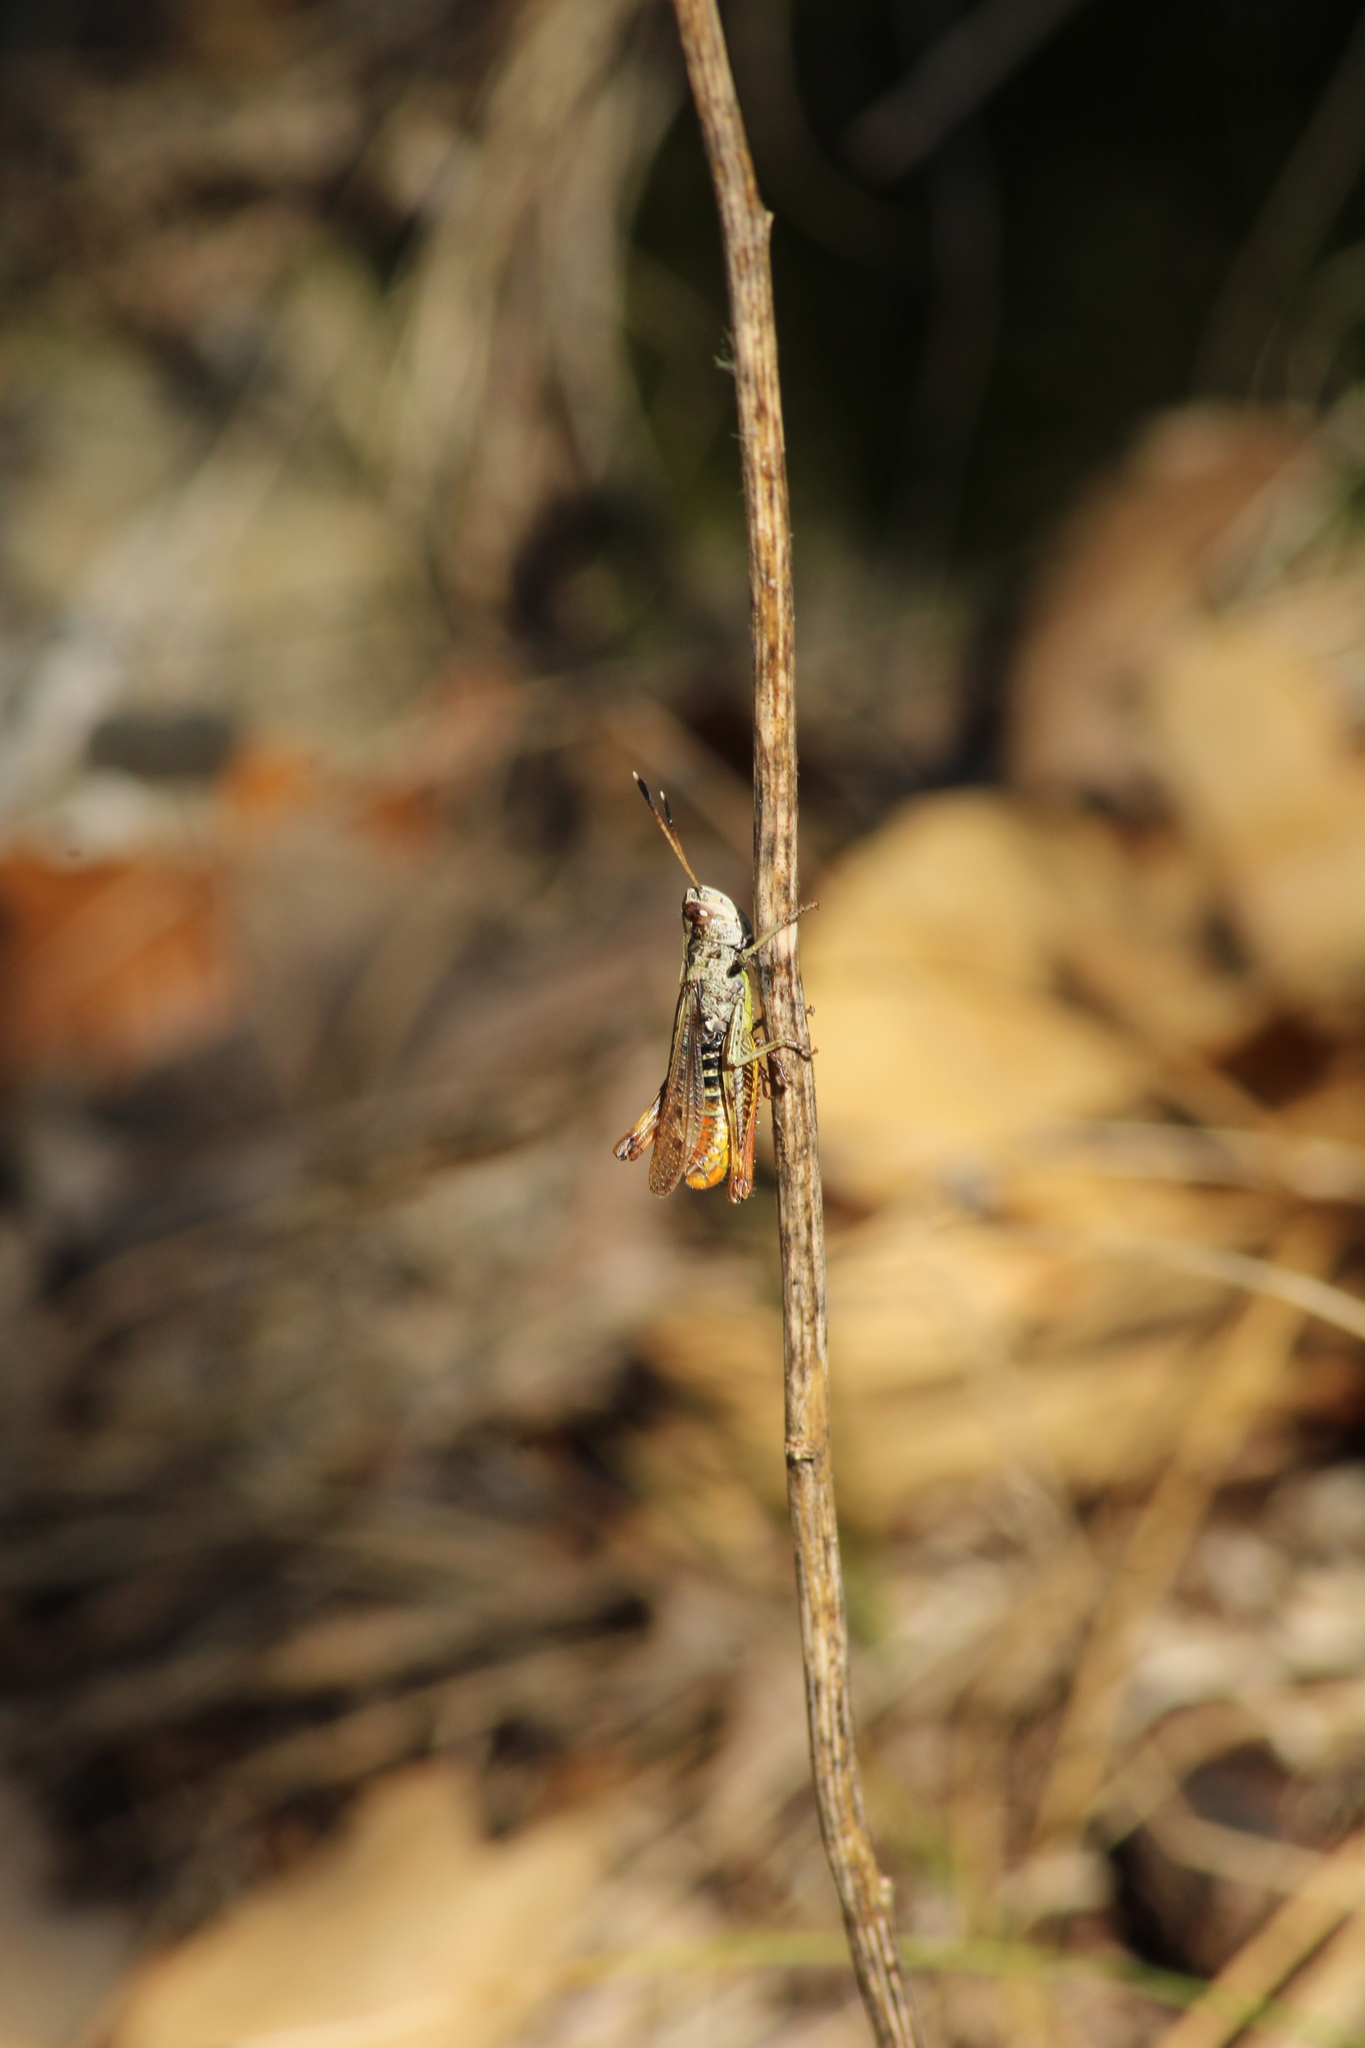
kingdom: Animalia
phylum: Arthropoda
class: Insecta
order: Orthoptera
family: Acrididae
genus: Gomphocerippus
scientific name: Gomphocerippus rufus
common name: Rufous grasshopper
